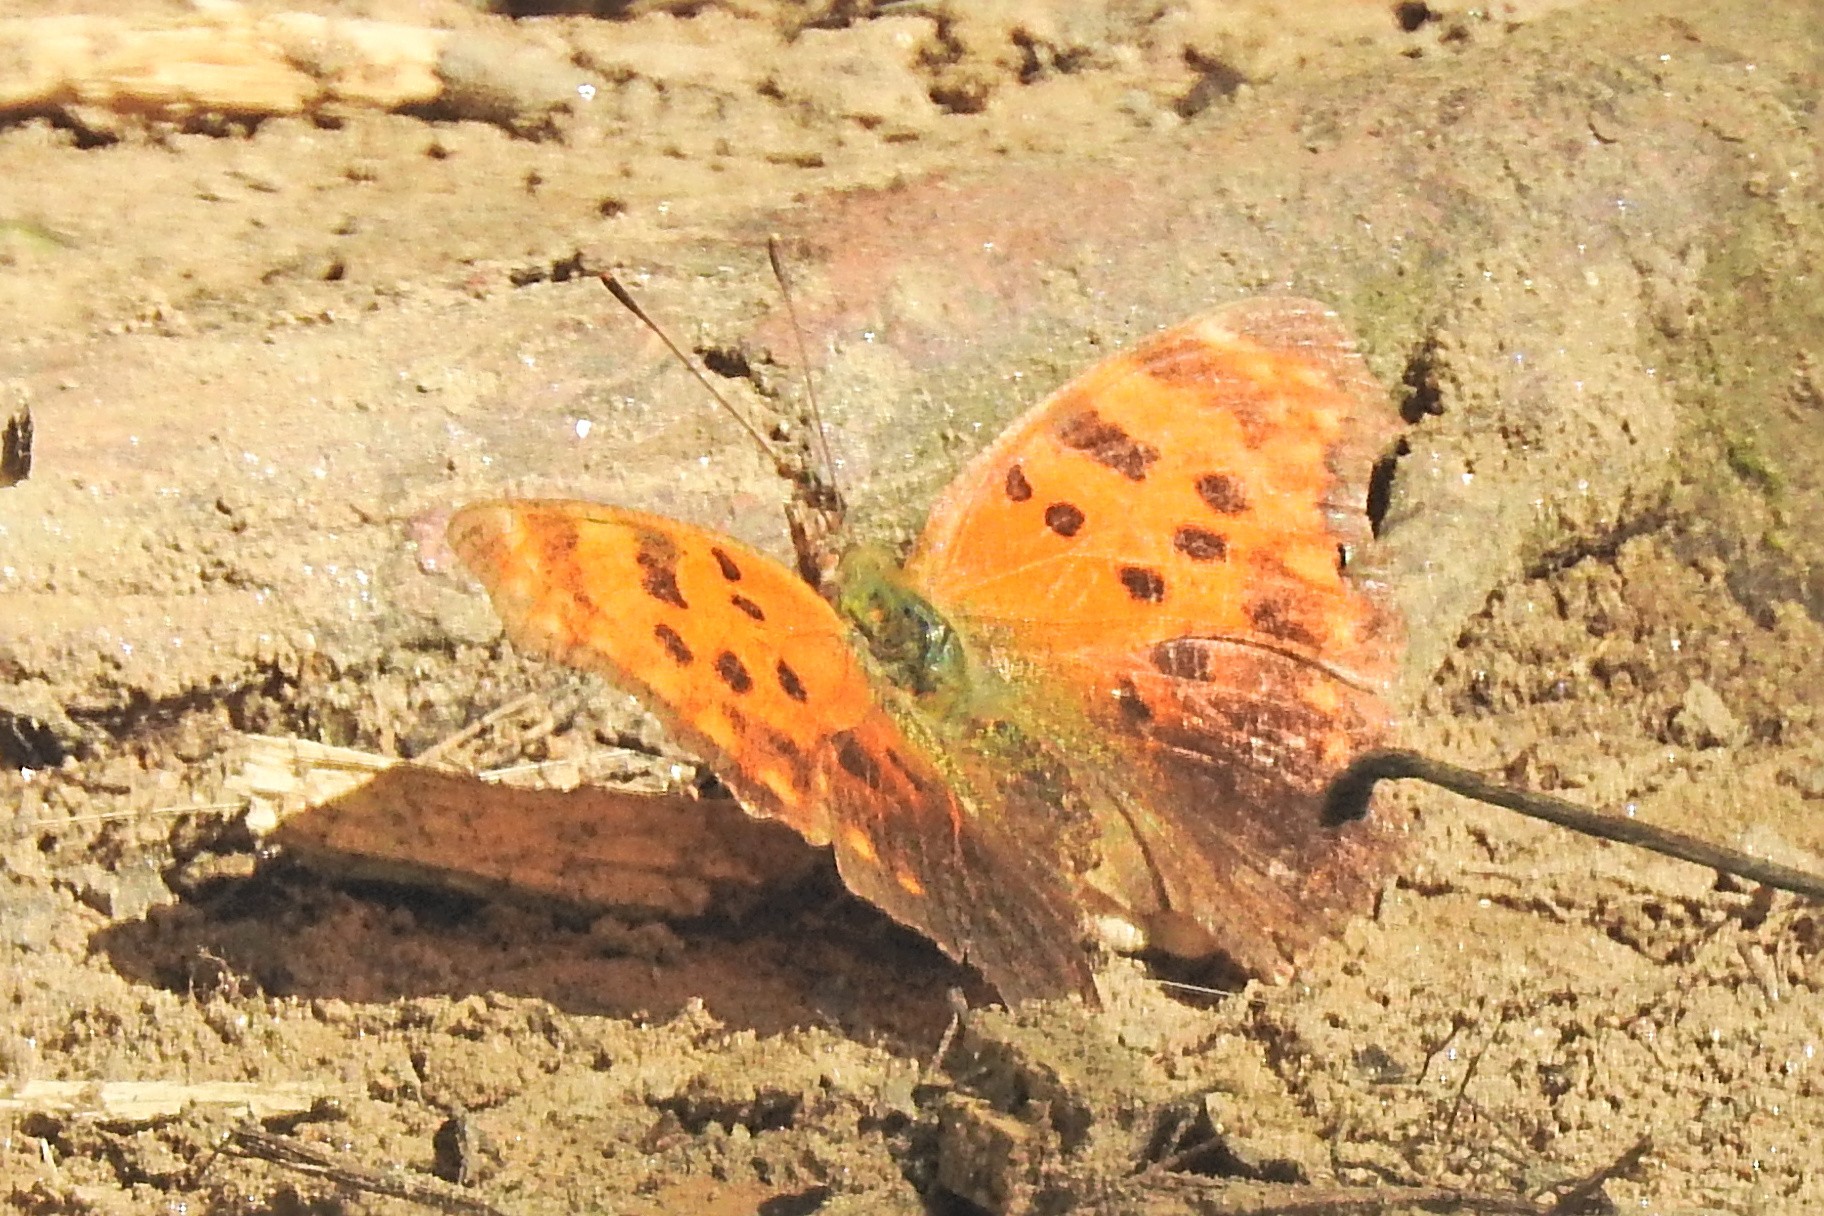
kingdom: Animalia
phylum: Arthropoda
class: Insecta
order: Lepidoptera
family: Nymphalidae
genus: Polygonia
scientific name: Polygonia comma
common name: Eastern comma
